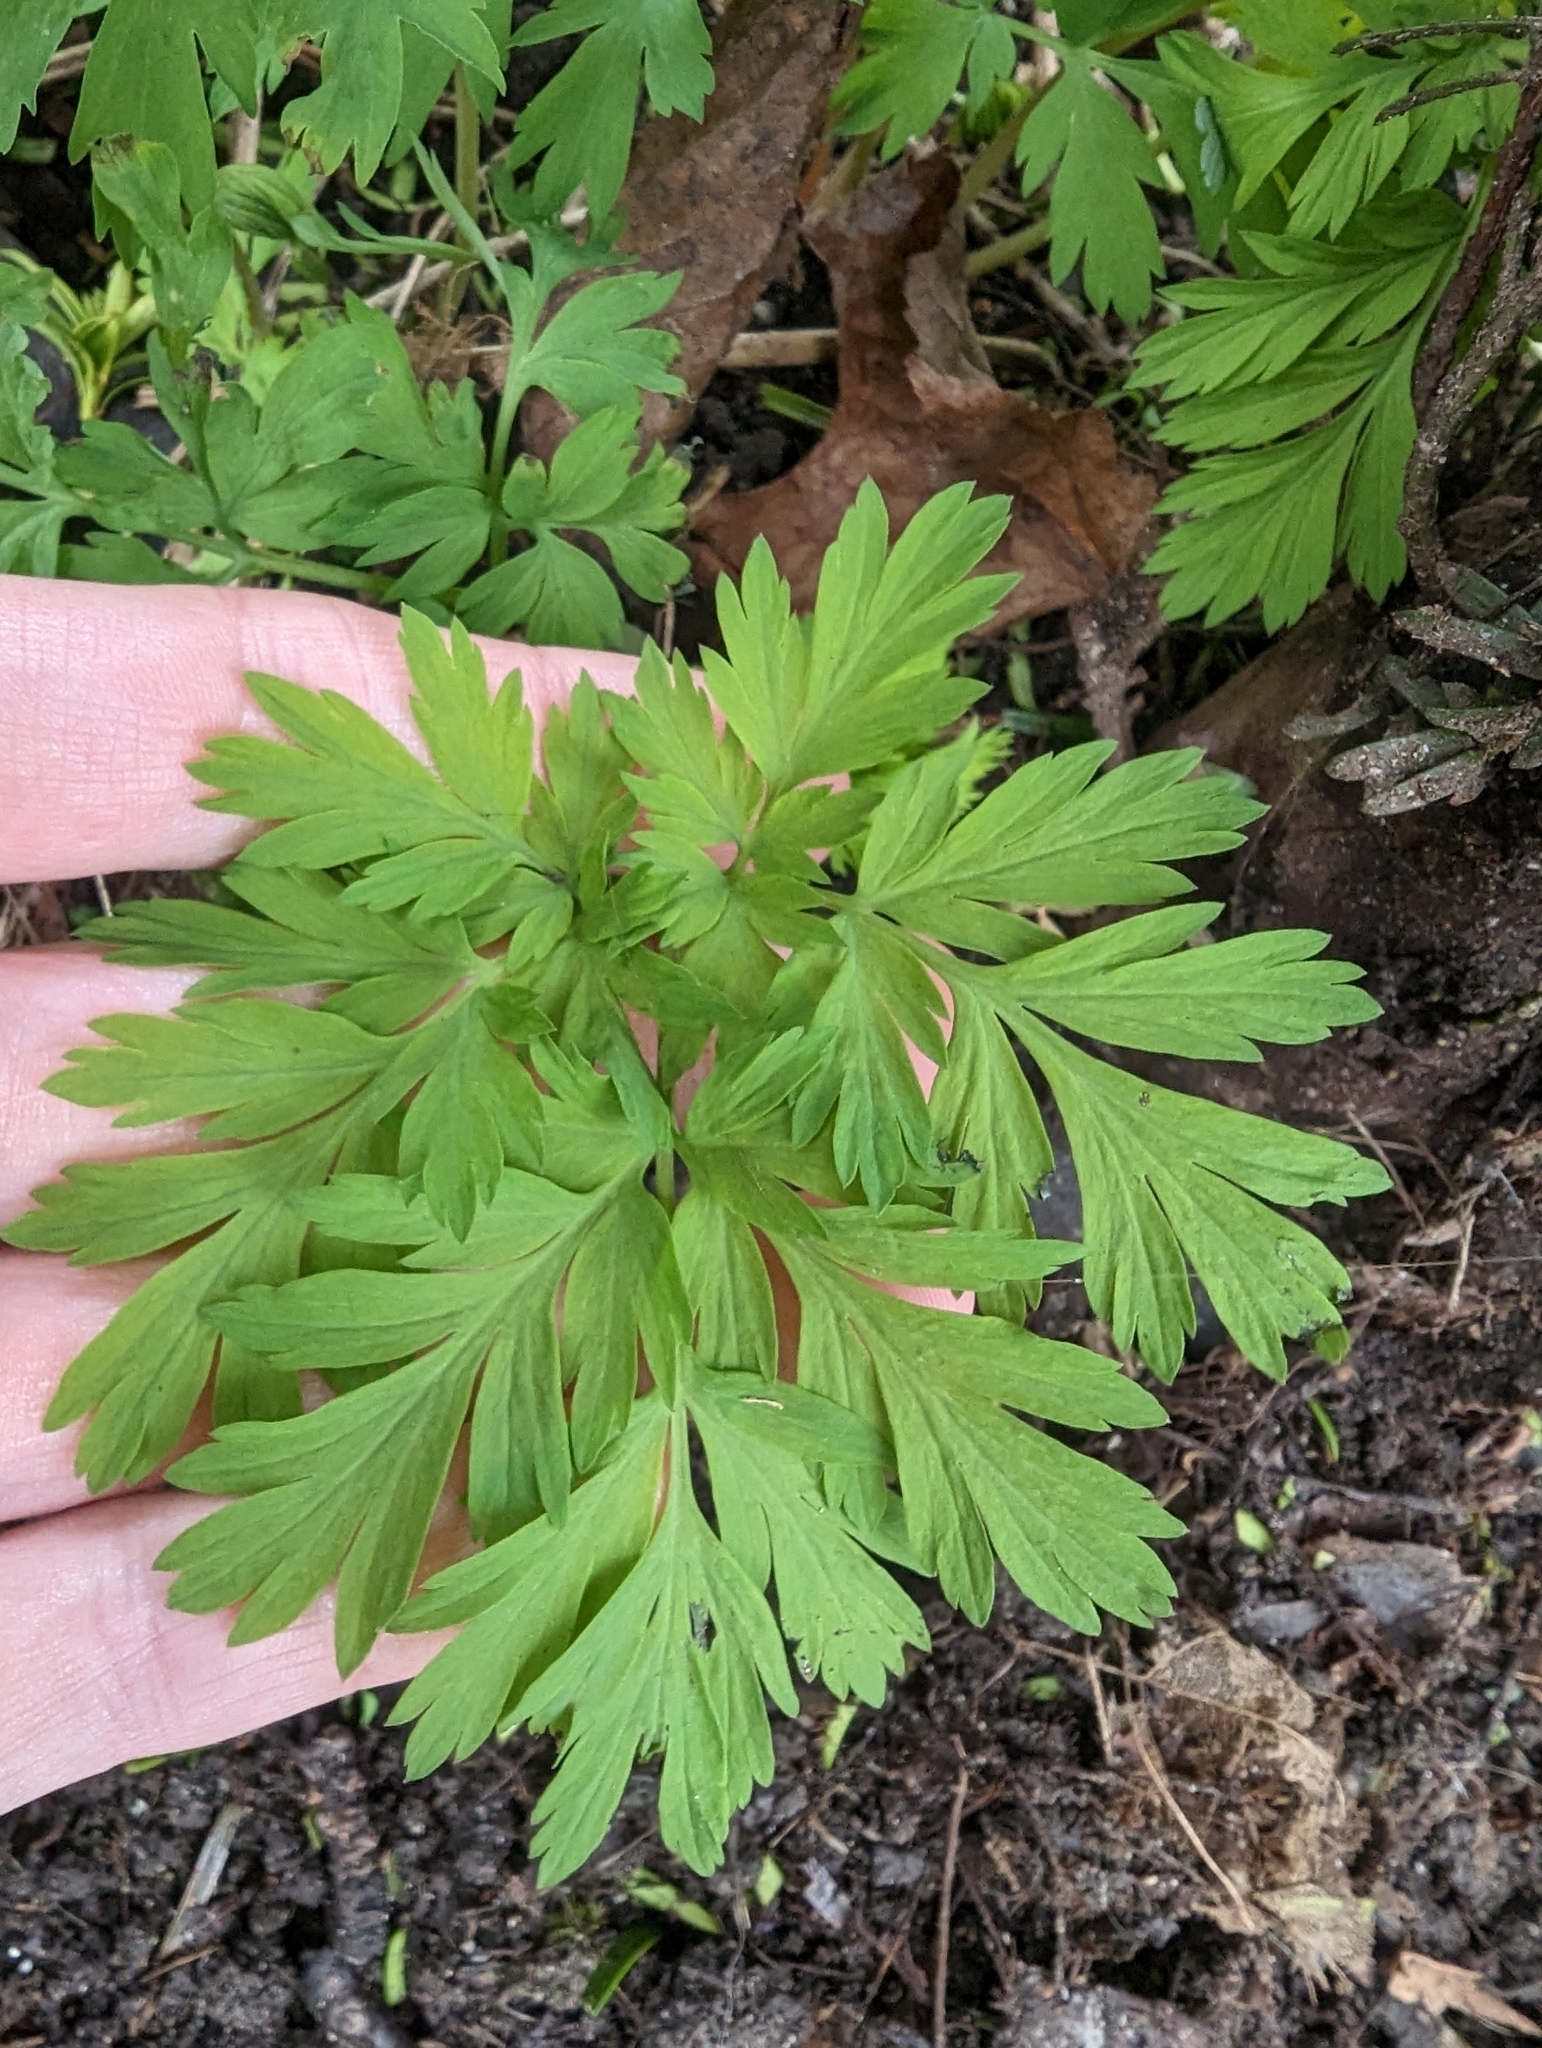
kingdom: Plantae
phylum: Tracheophyta
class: Magnoliopsida
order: Ranunculales
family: Papaveraceae
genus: Dicentra
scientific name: Dicentra formosa
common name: Bleeding-heart
